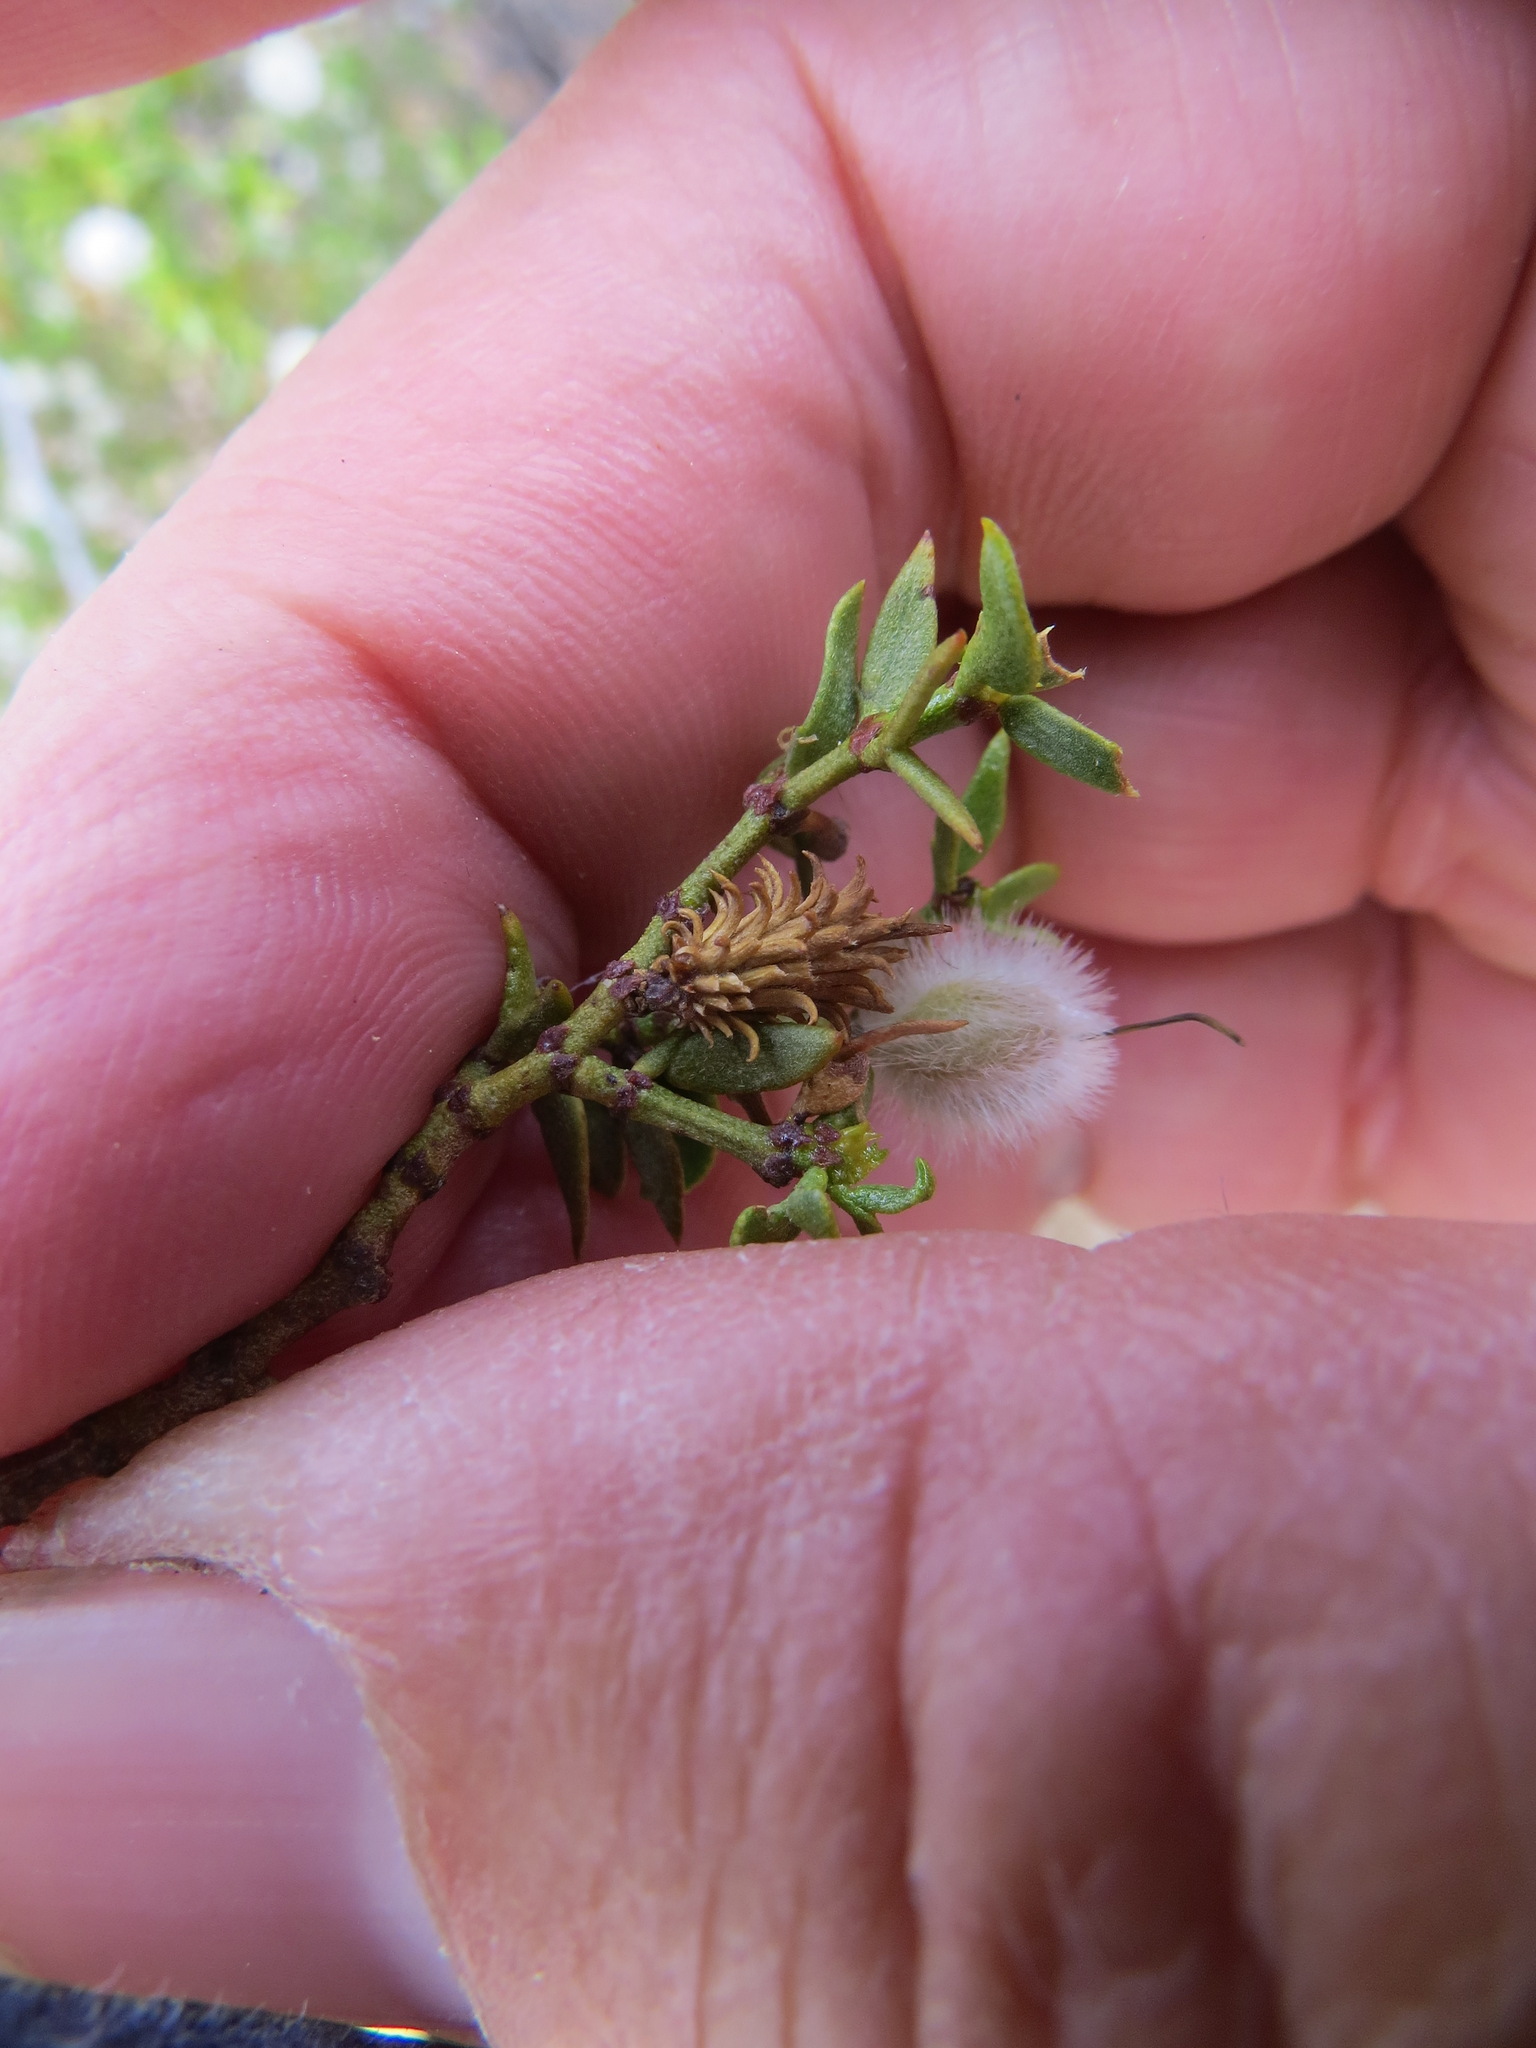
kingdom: Animalia
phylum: Arthropoda
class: Insecta
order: Diptera
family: Cecidomyiidae
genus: Asphondylia
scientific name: Asphondylia rosetta
